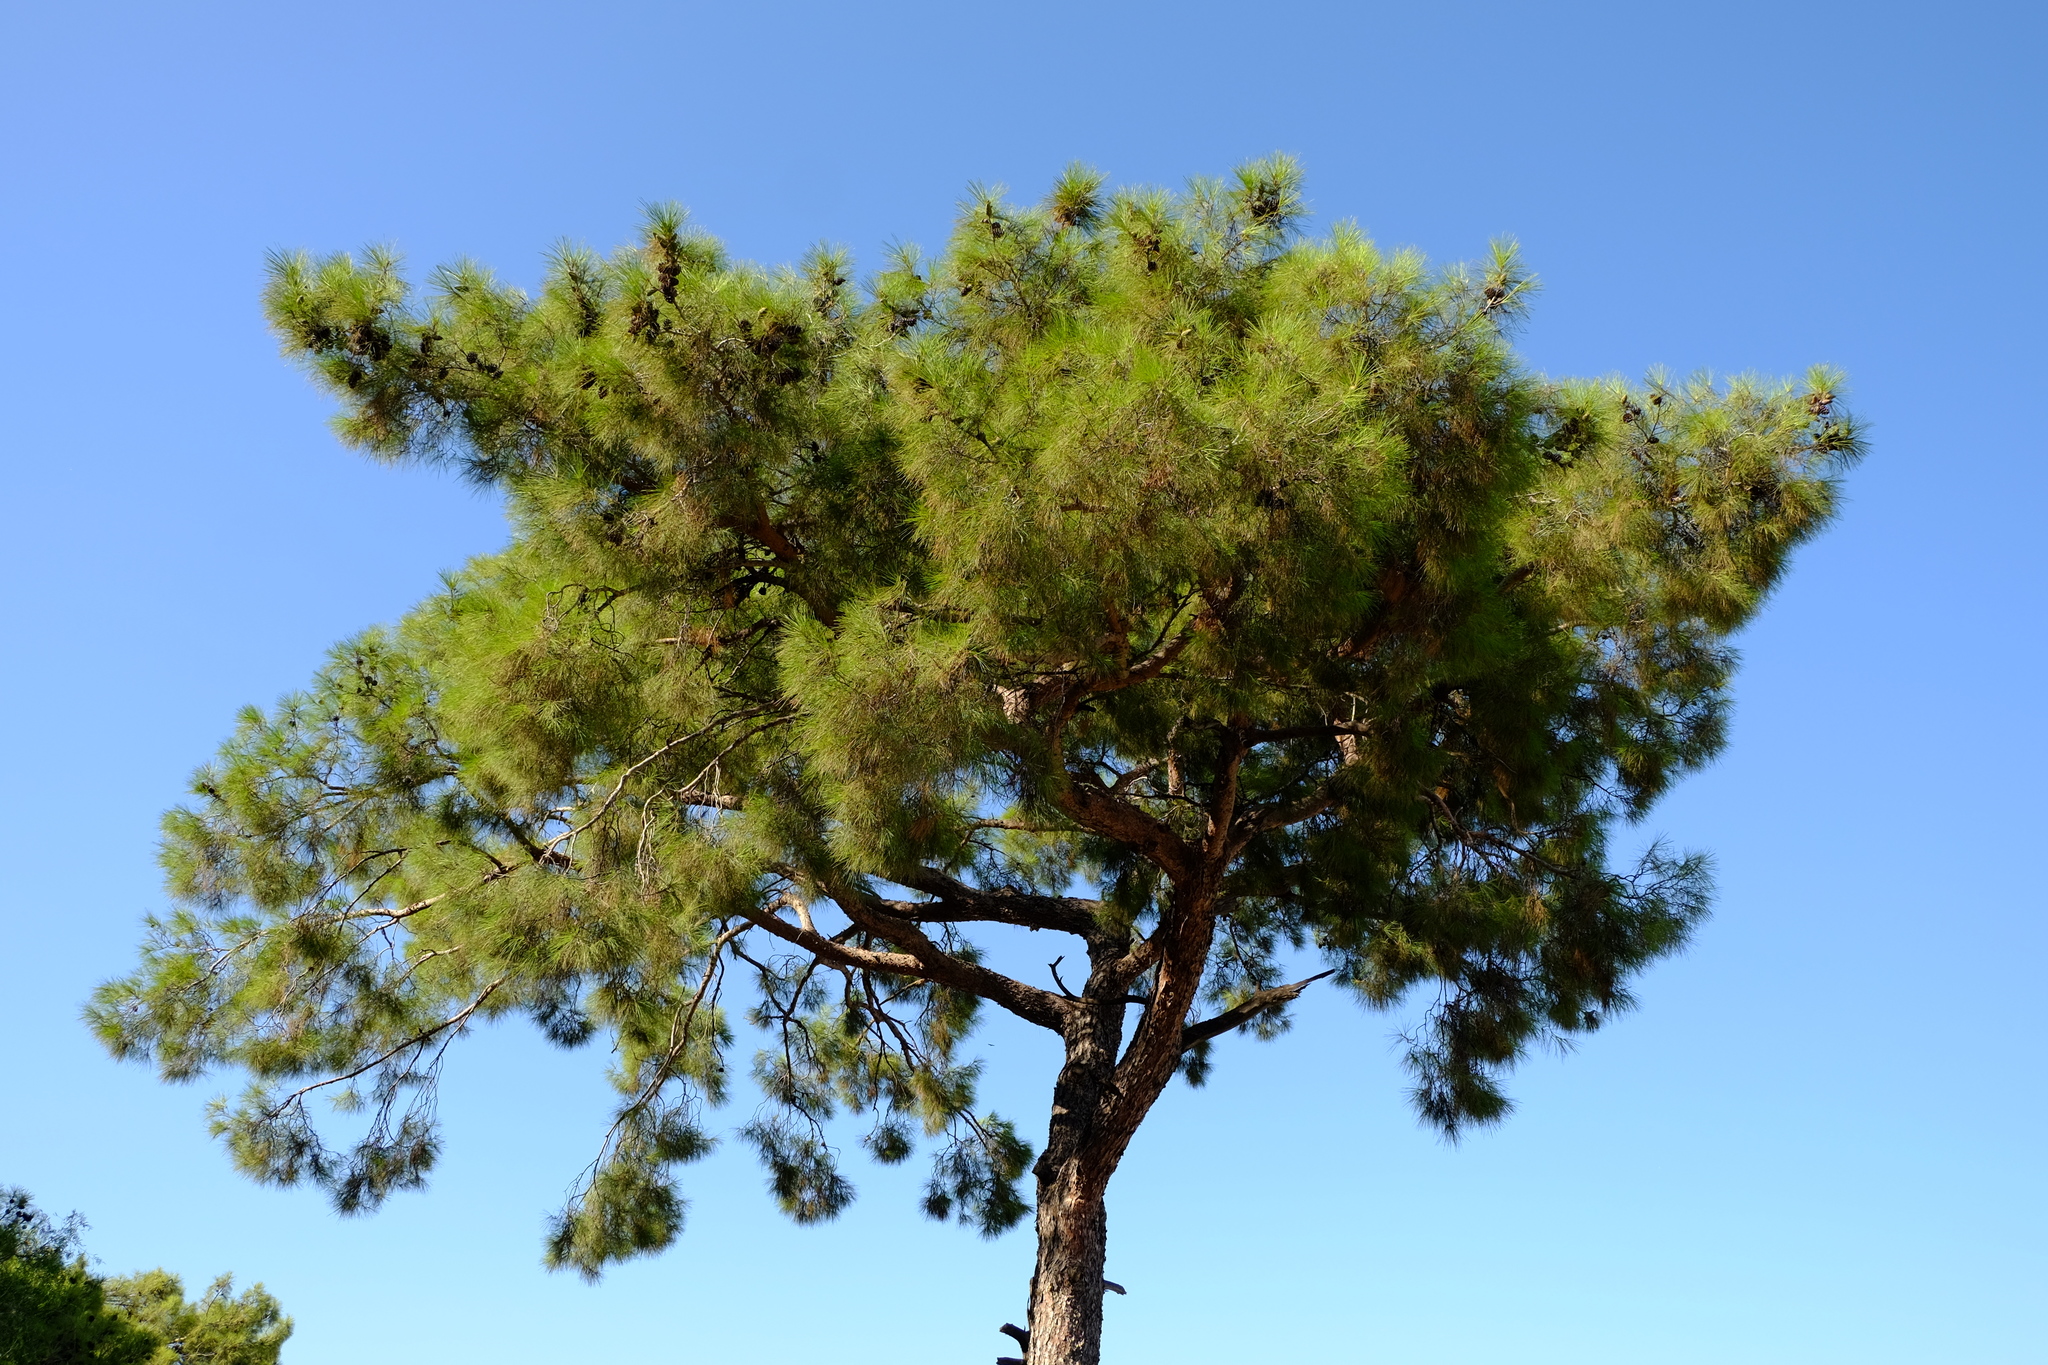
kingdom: Plantae
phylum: Tracheophyta
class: Pinopsida
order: Pinales
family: Pinaceae
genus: Pinus
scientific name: Pinus brutia
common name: Turkish pine
